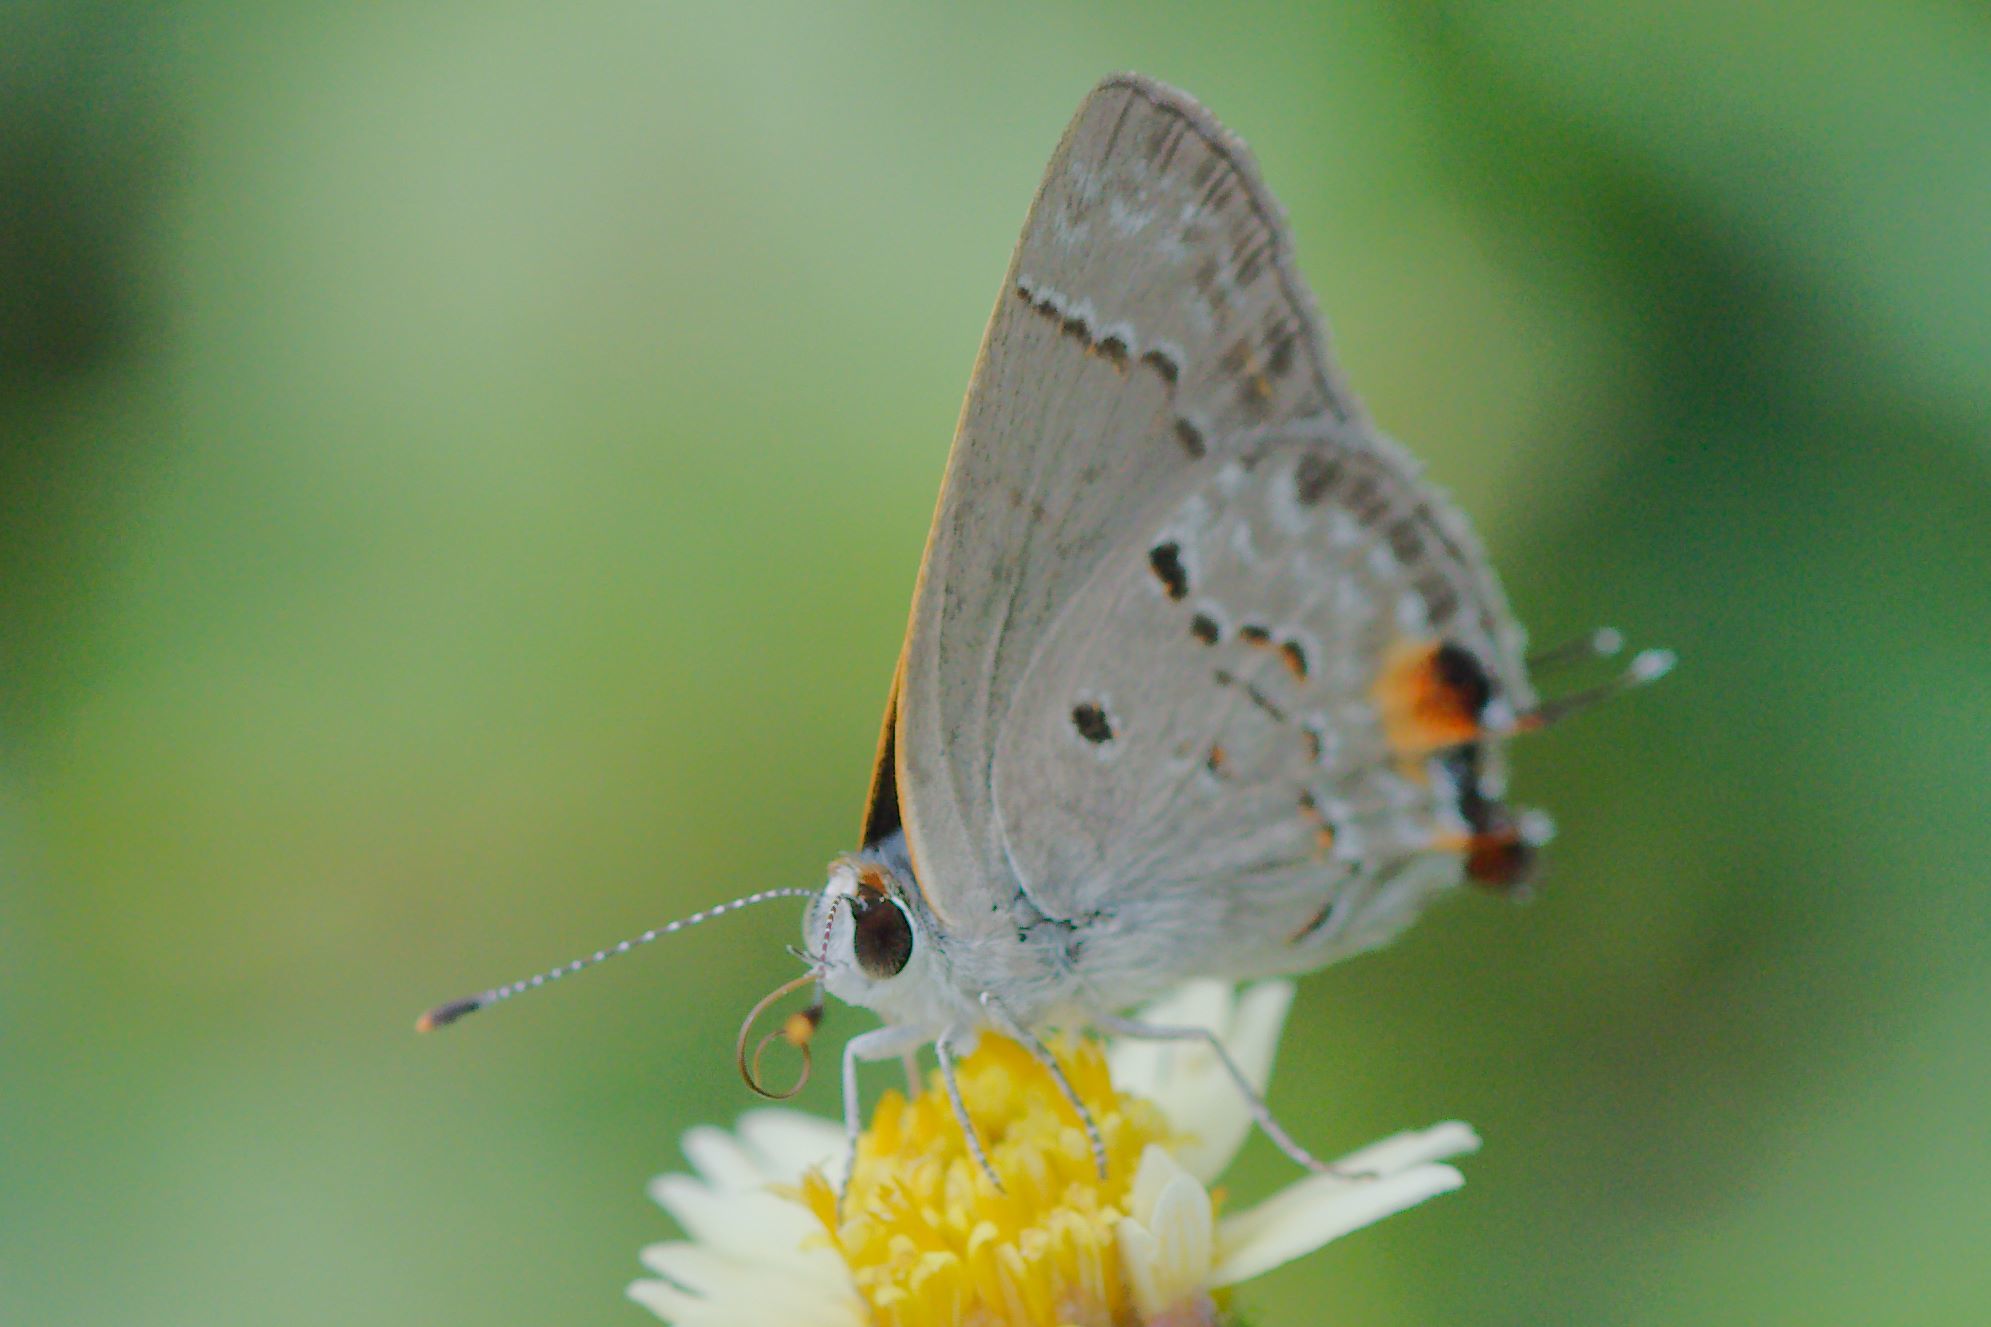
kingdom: Animalia
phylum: Arthropoda
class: Insecta
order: Lepidoptera
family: Lycaenidae
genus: Callicista
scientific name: Callicista columella
